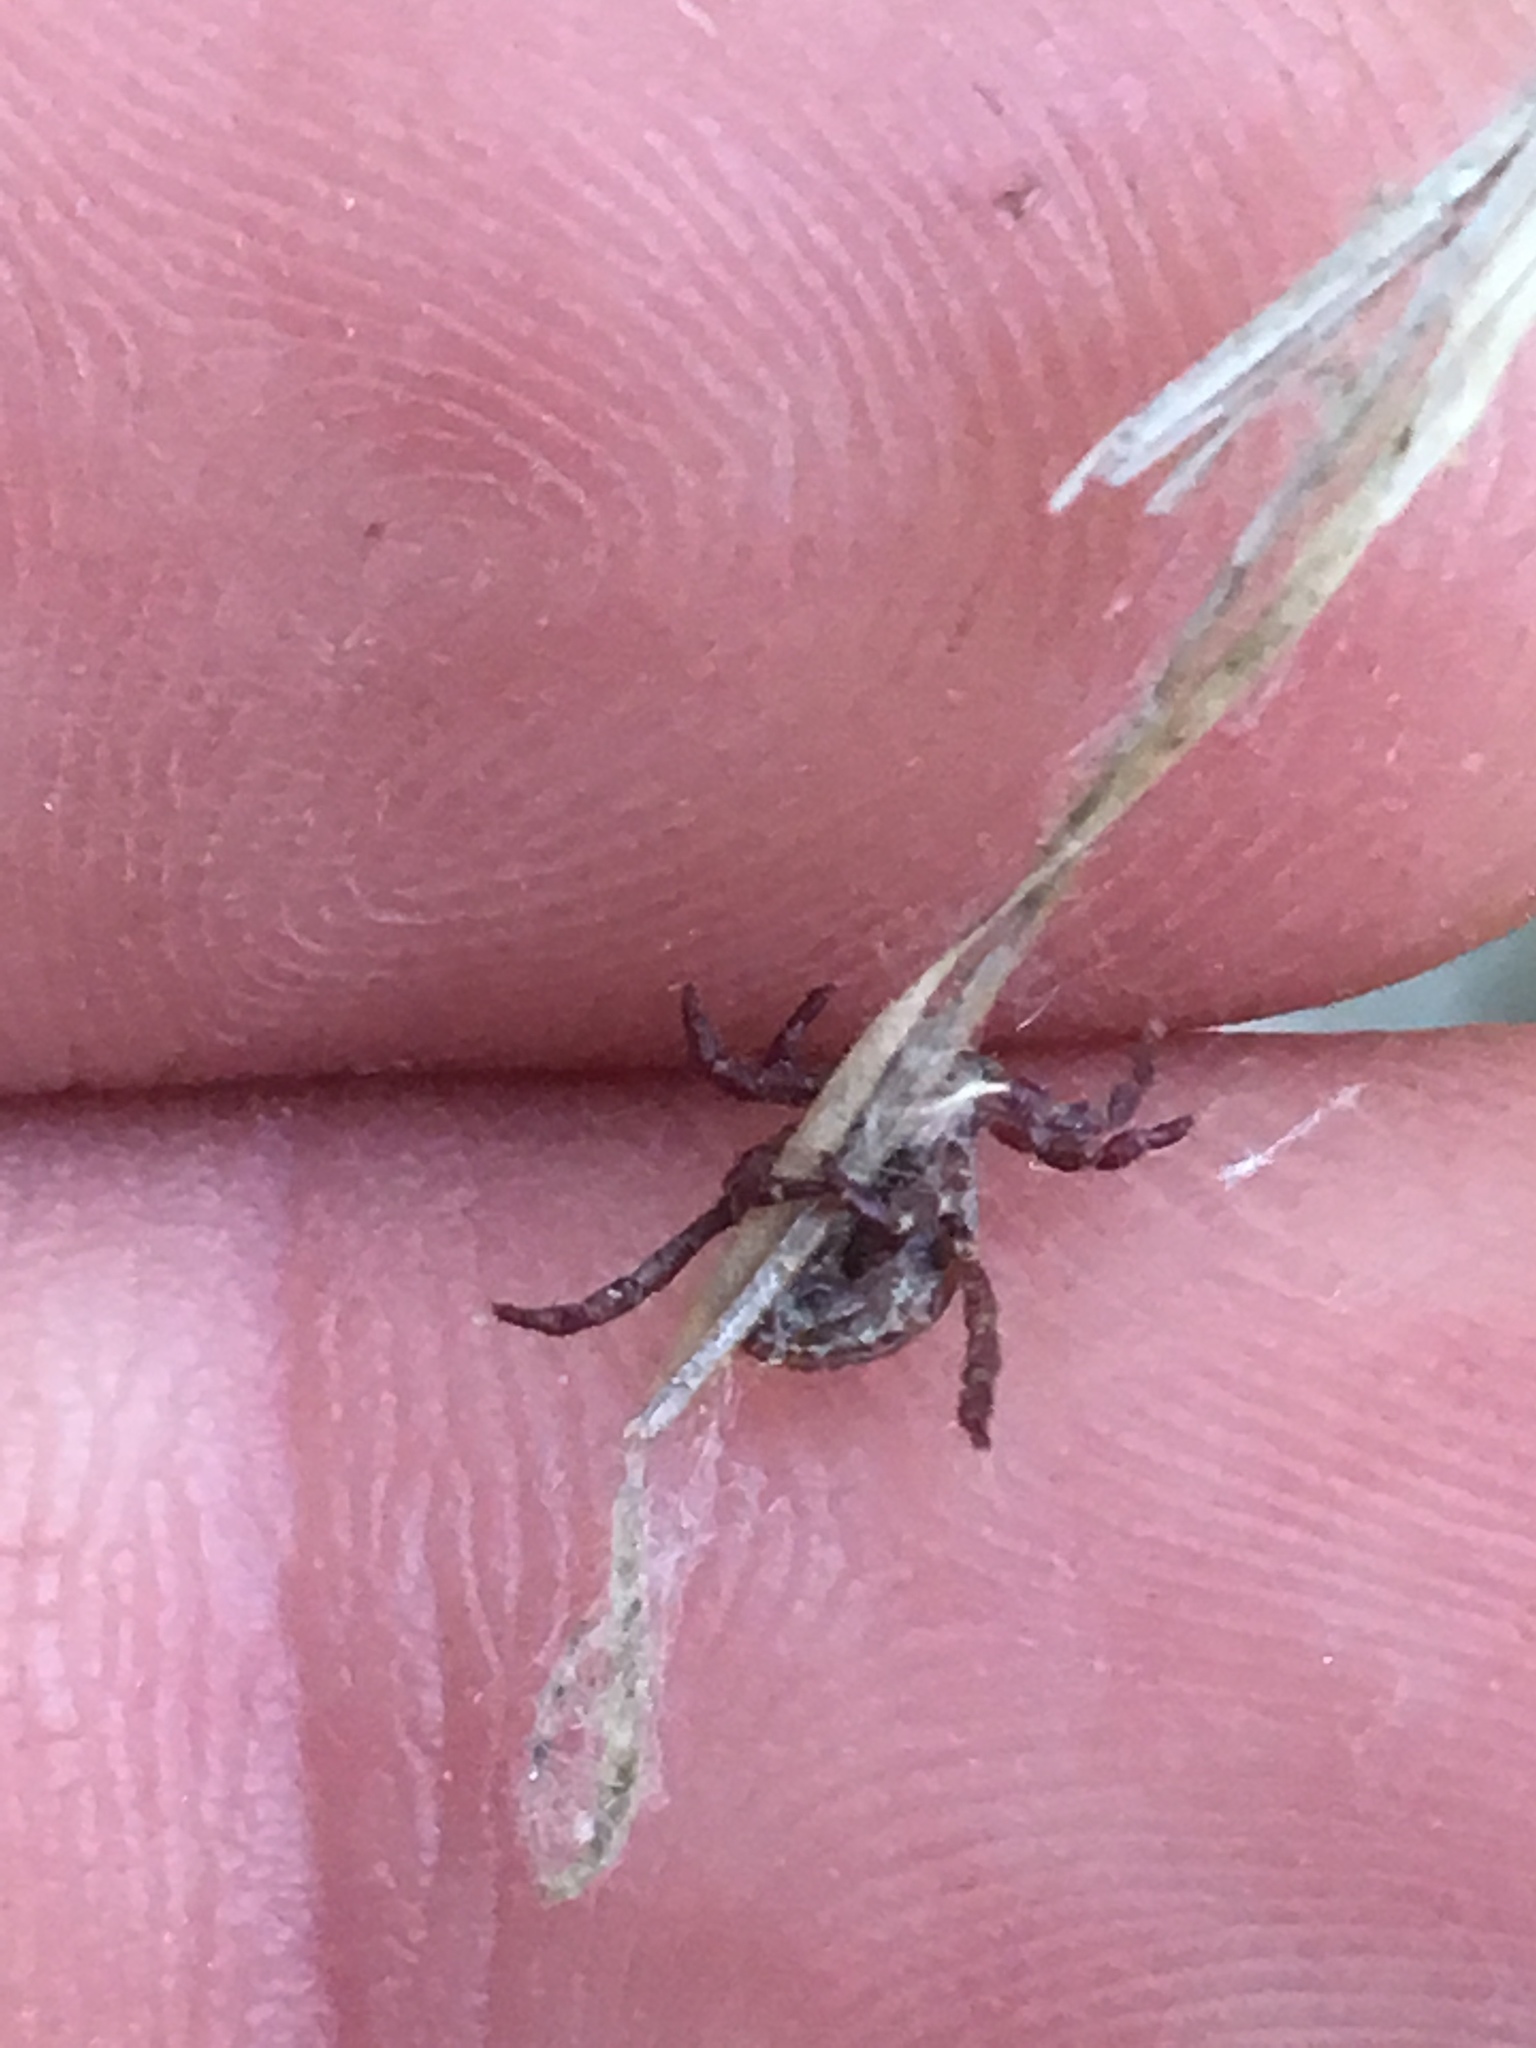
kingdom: Animalia
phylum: Arthropoda
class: Arachnida
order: Ixodida
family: Ixodidae
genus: Dermacentor
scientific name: Dermacentor variabilis
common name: American dog tick
